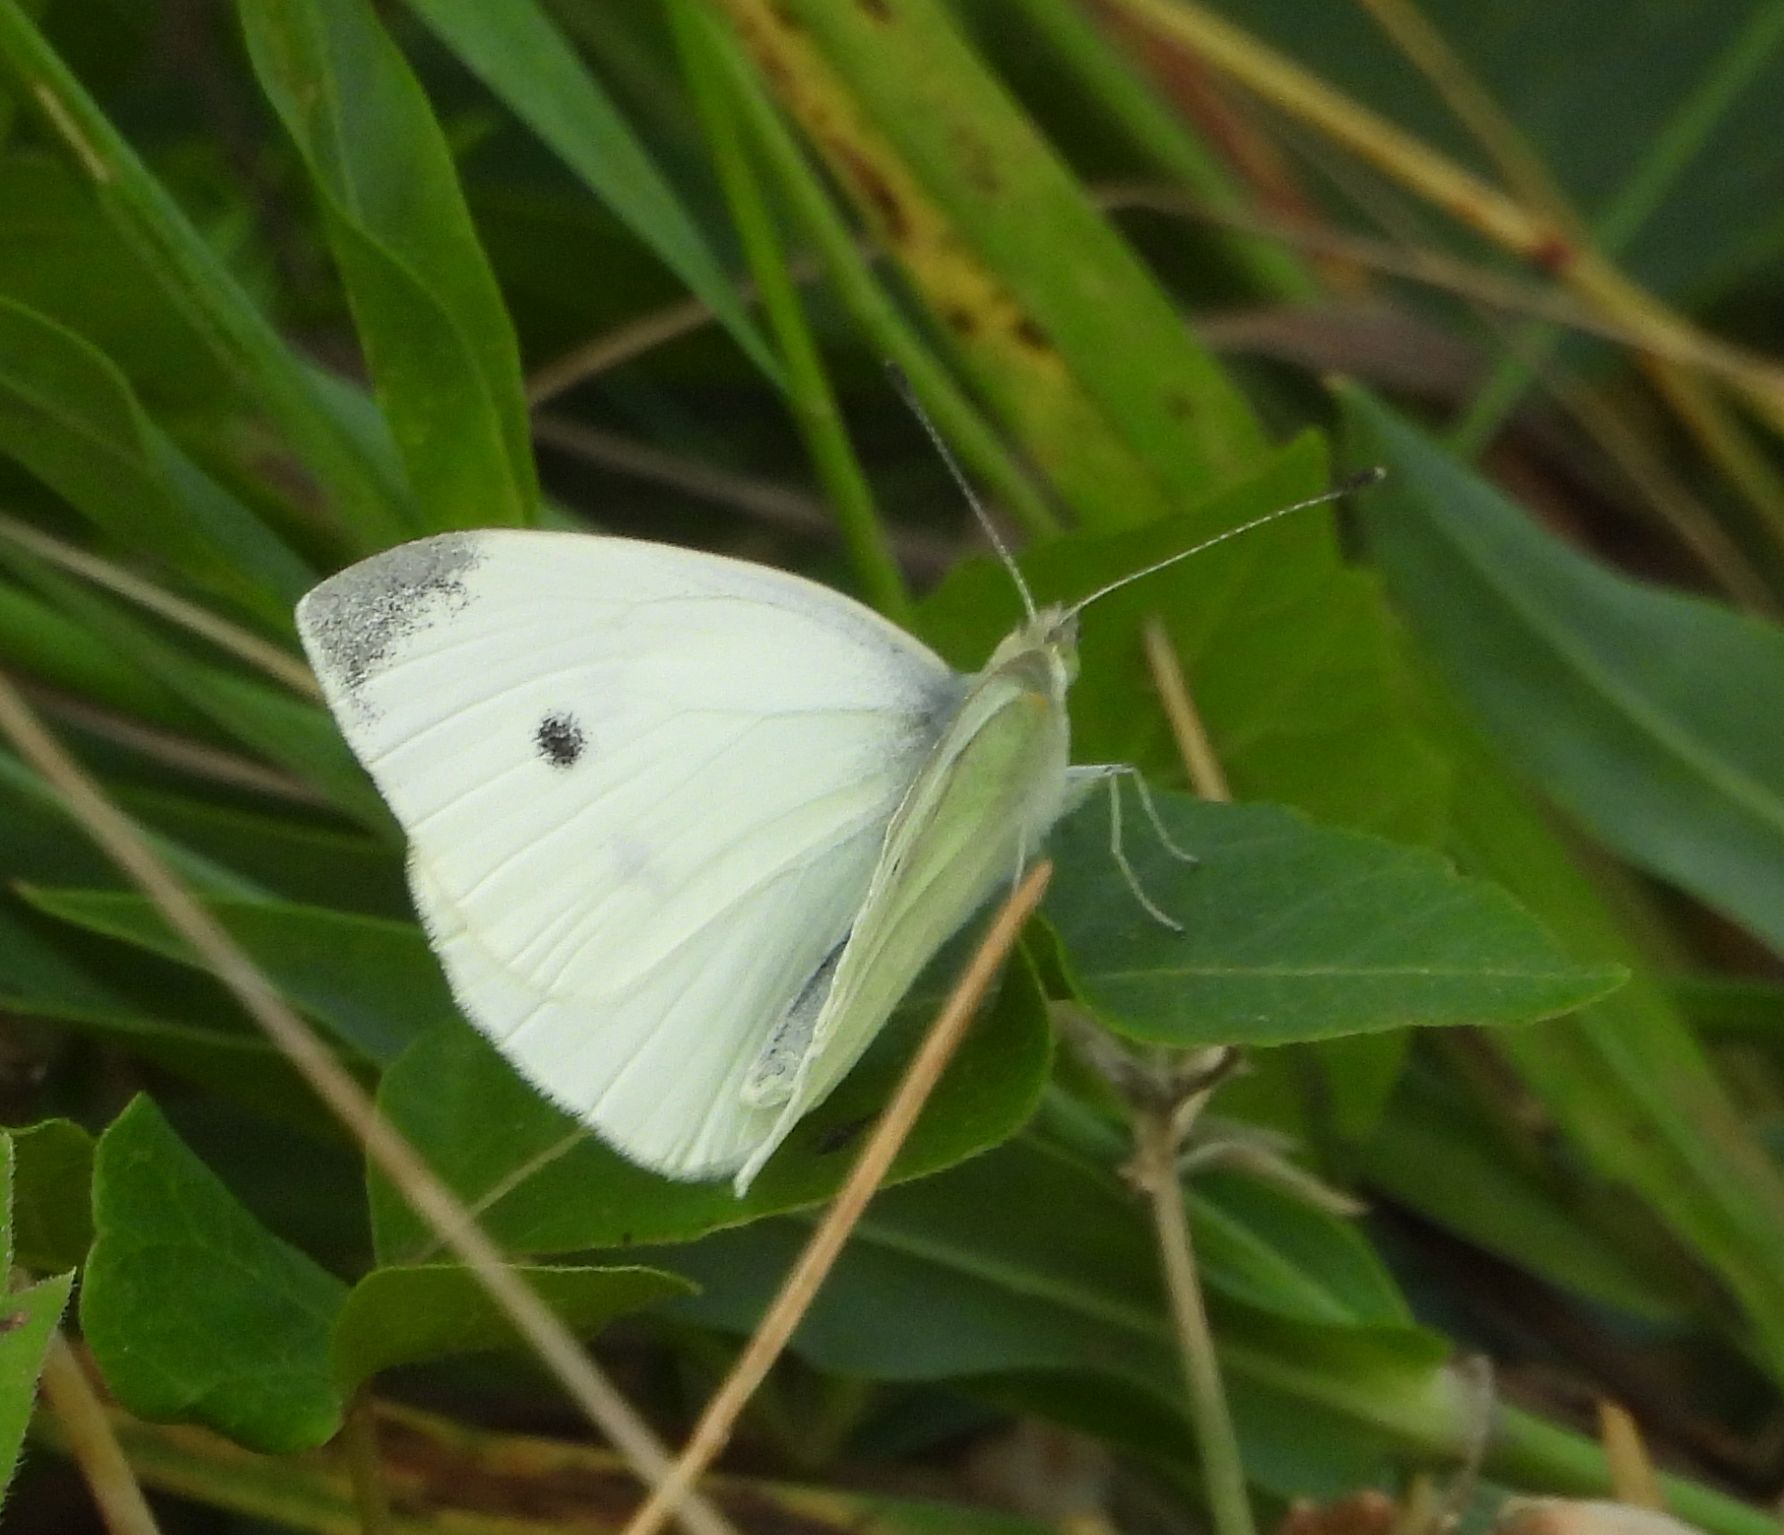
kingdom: Animalia
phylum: Arthropoda
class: Insecta
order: Lepidoptera
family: Pieridae
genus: Pieris
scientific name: Pieris rapae
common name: Small white
